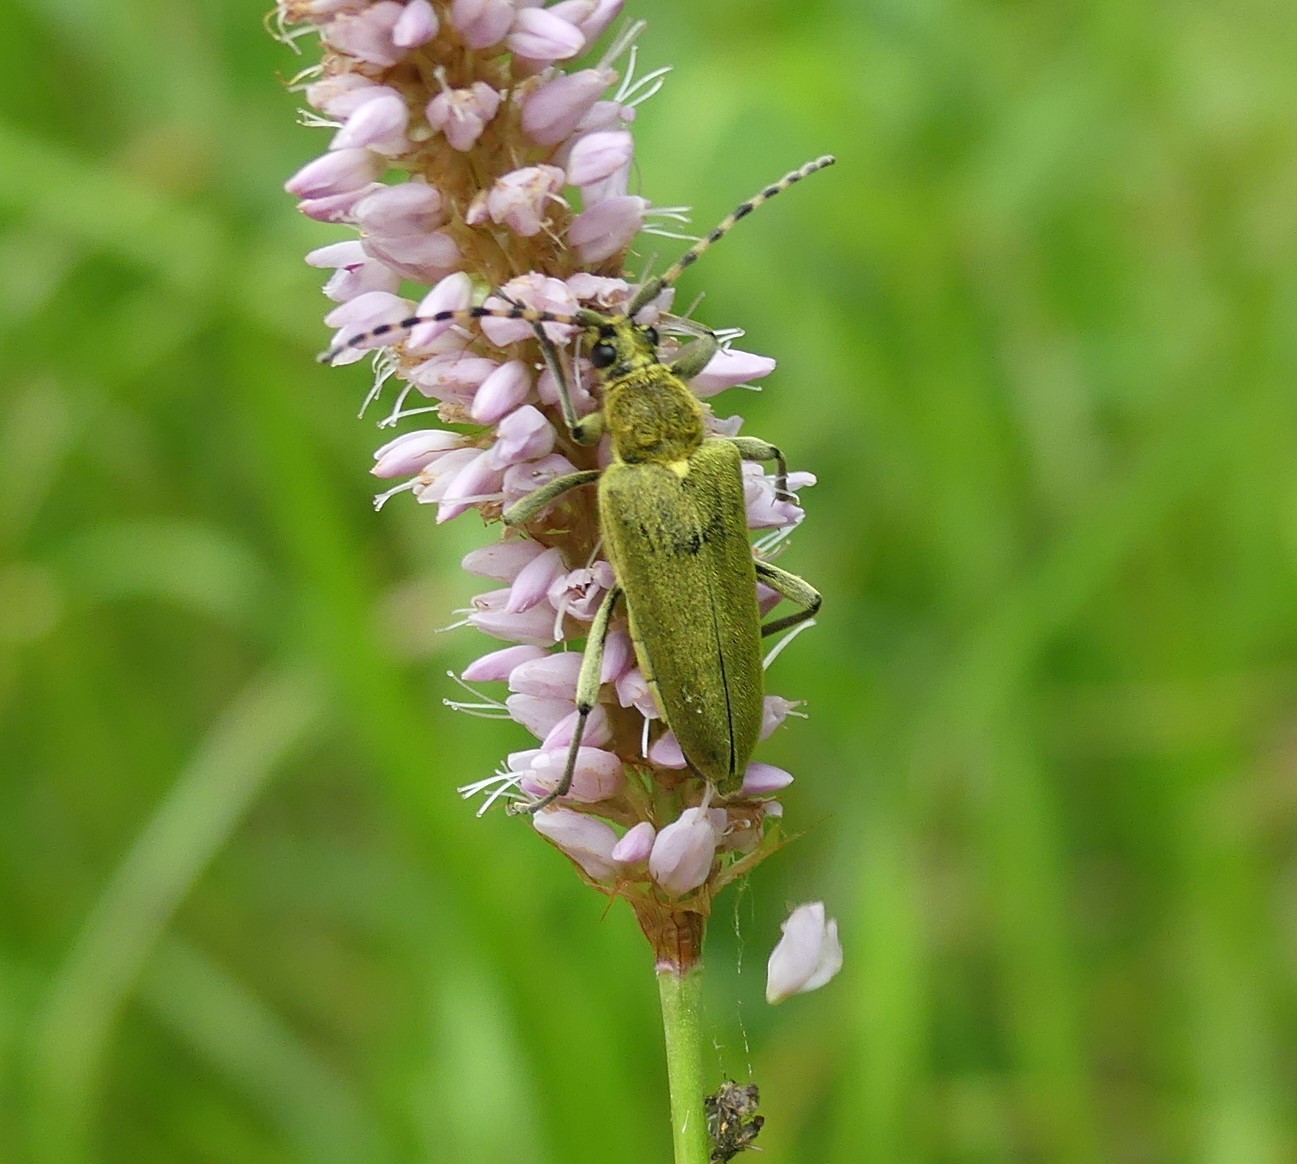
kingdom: Animalia
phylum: Arthropoda
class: Insecta
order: Coleoptera
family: Cerambycidae
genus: Lepturobosca
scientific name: Lepturobosca virens
